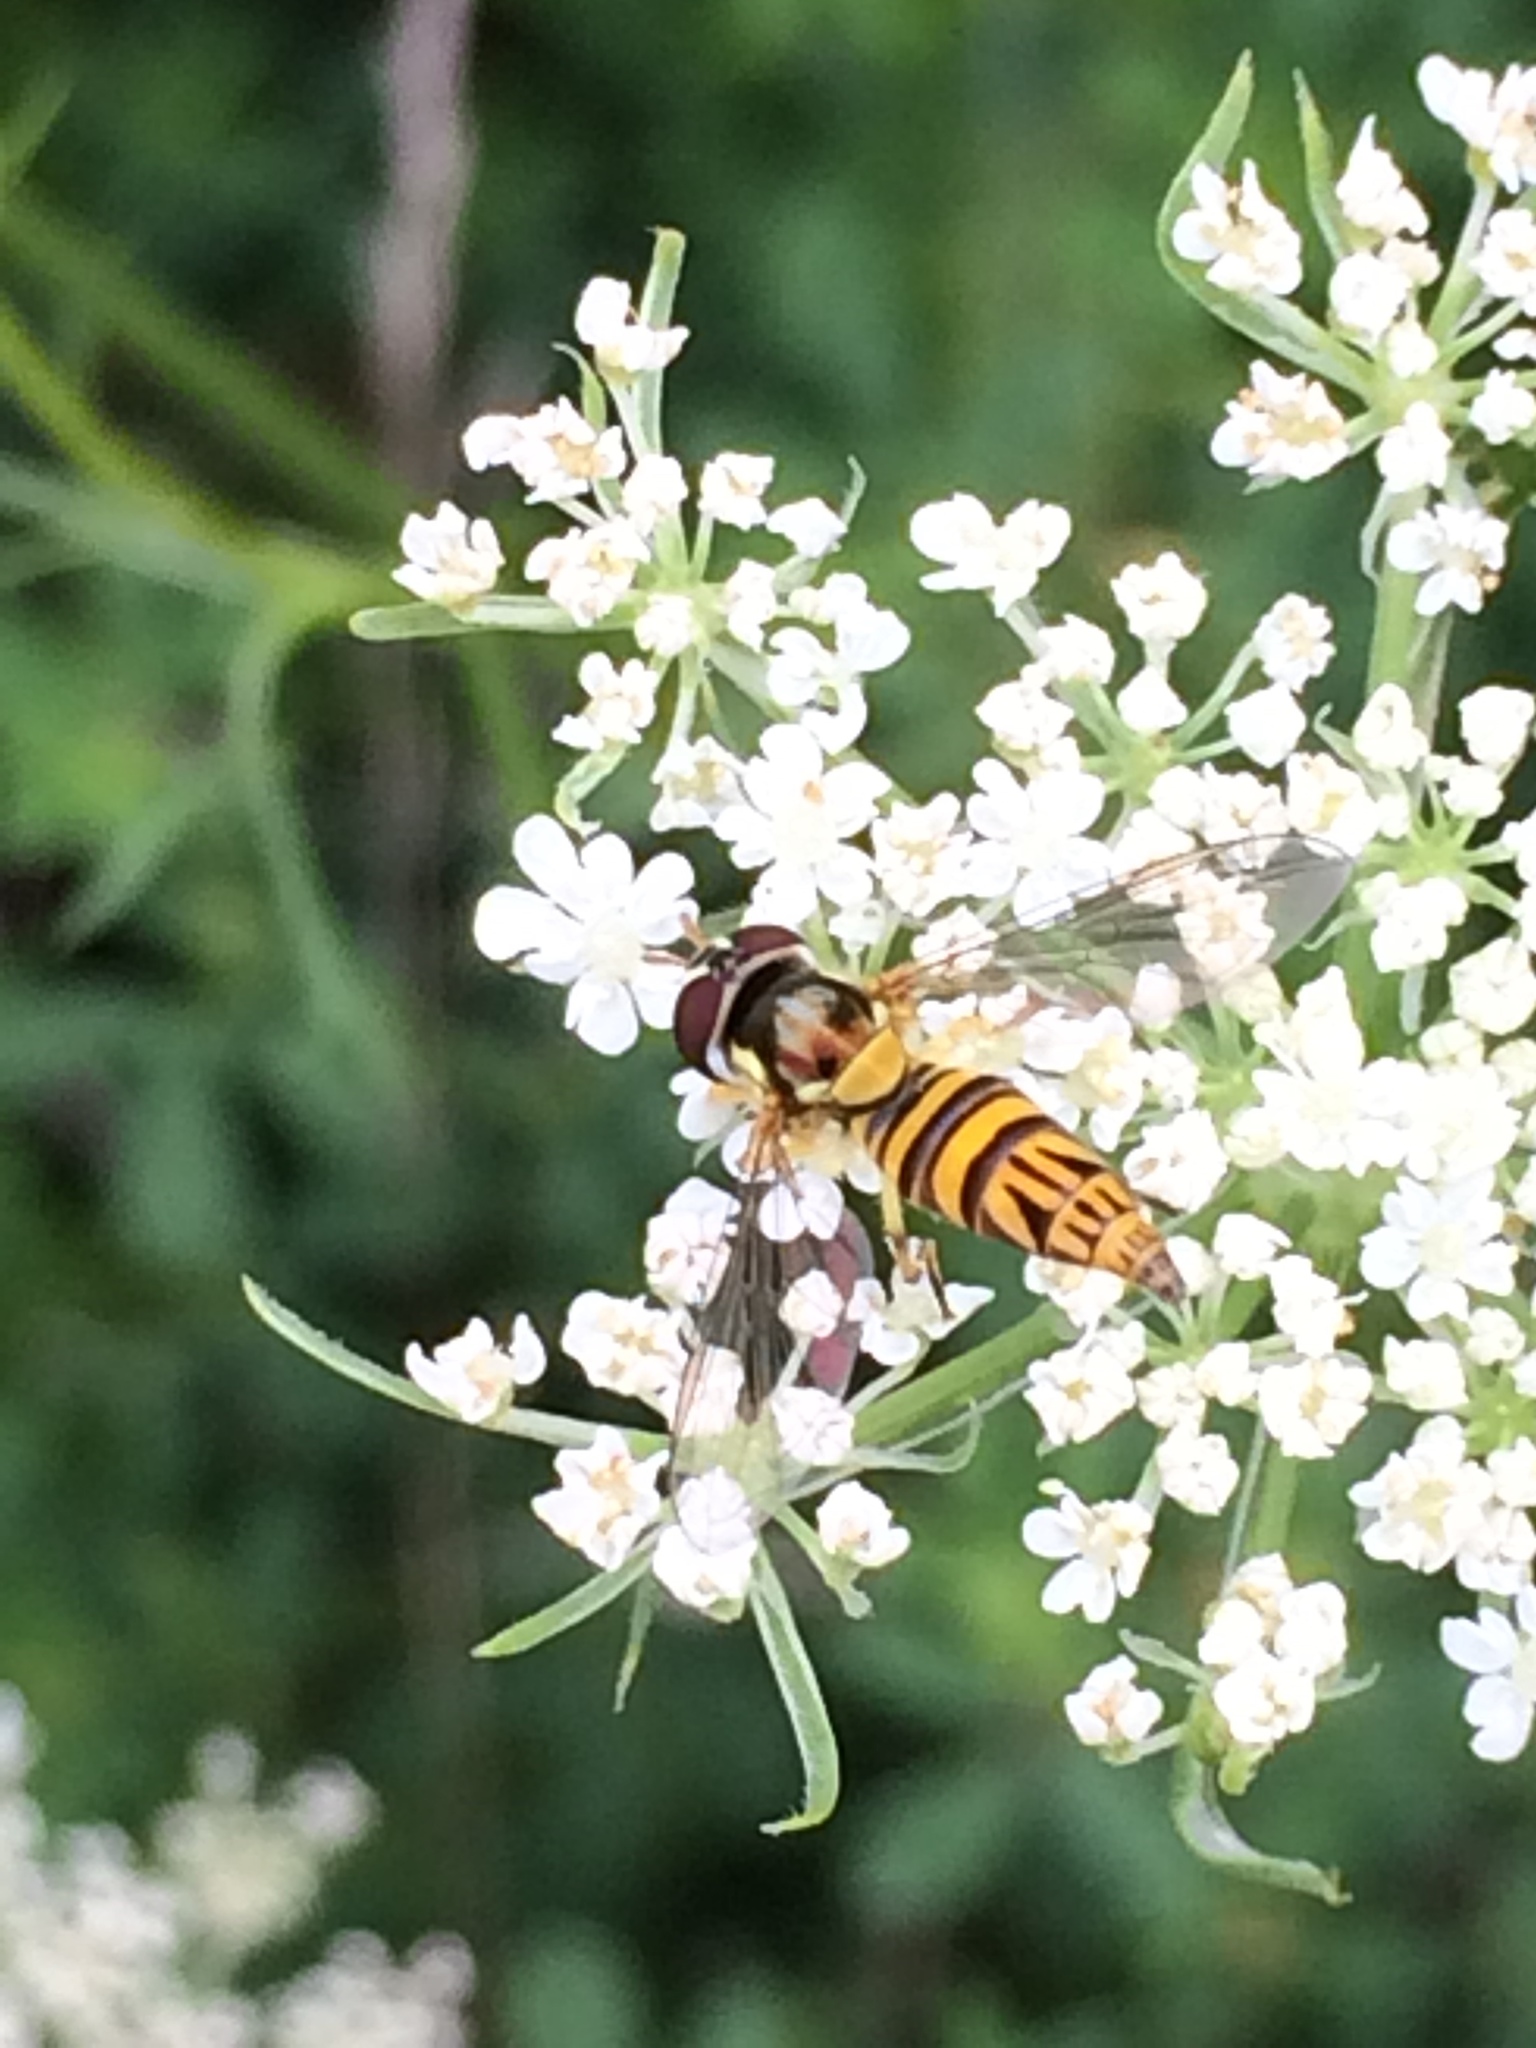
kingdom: Animalia
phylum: Arthropoda
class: Insecta
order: Diptera
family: Syrphidae
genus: Allograpta
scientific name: Allograpta obliqua
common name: Common oblique syrphid
